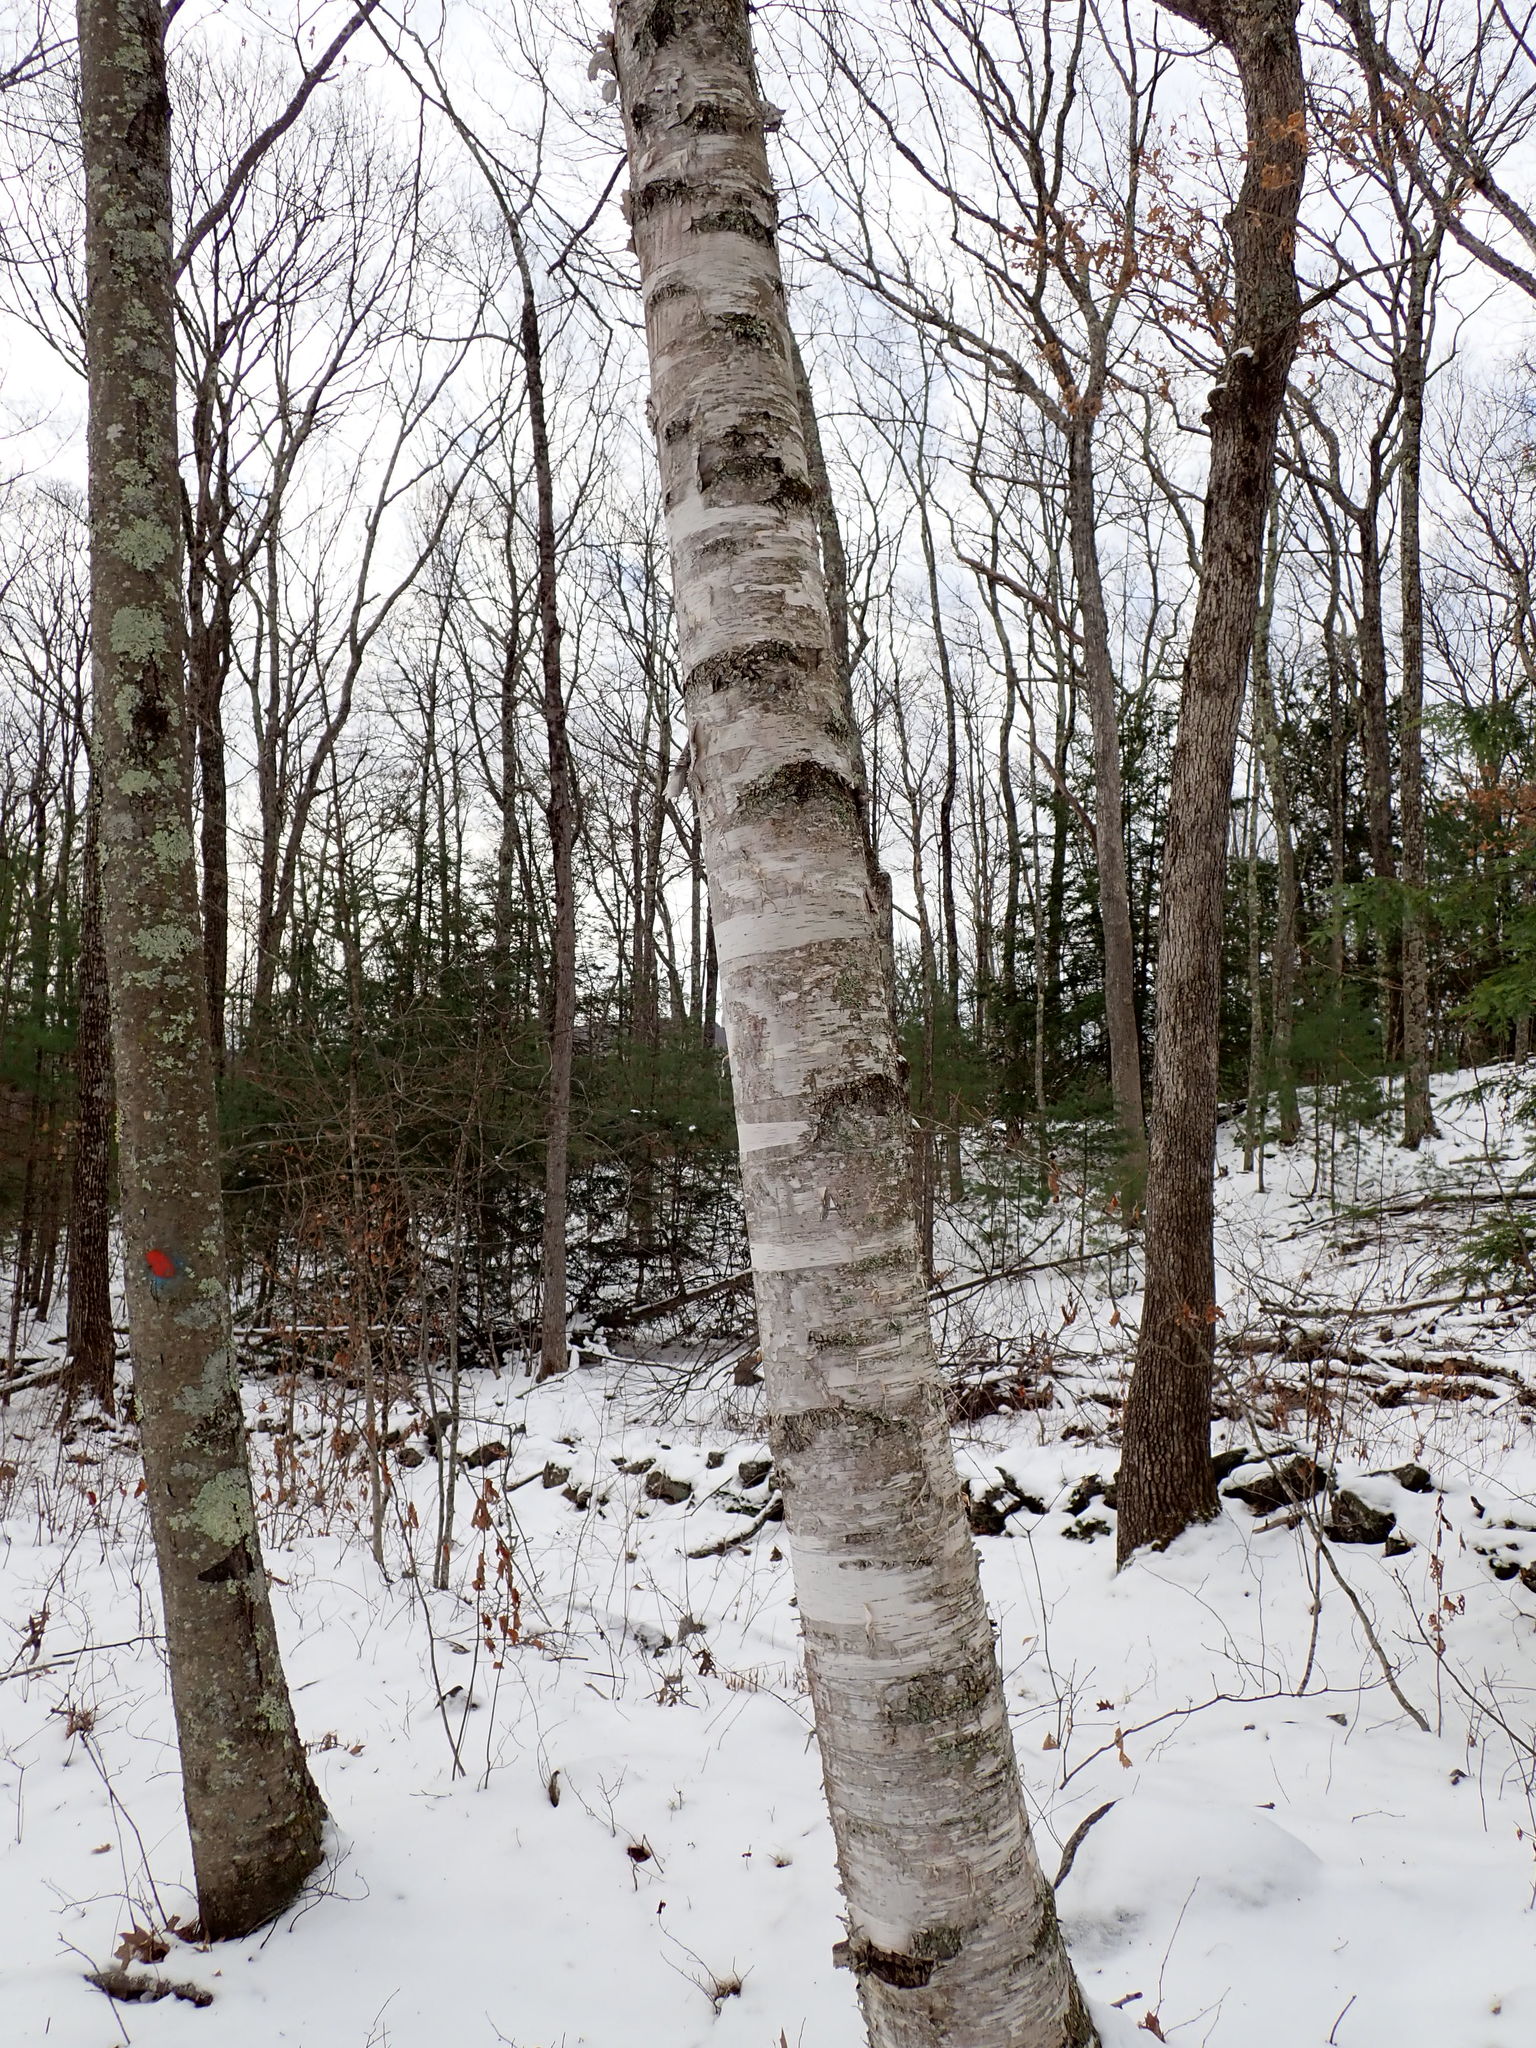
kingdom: Plantae
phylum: Tracheophyta
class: Magnoliopsida
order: Fagales
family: Betulaceae
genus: Betula
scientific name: Betula papyrifera
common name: Paper birch
